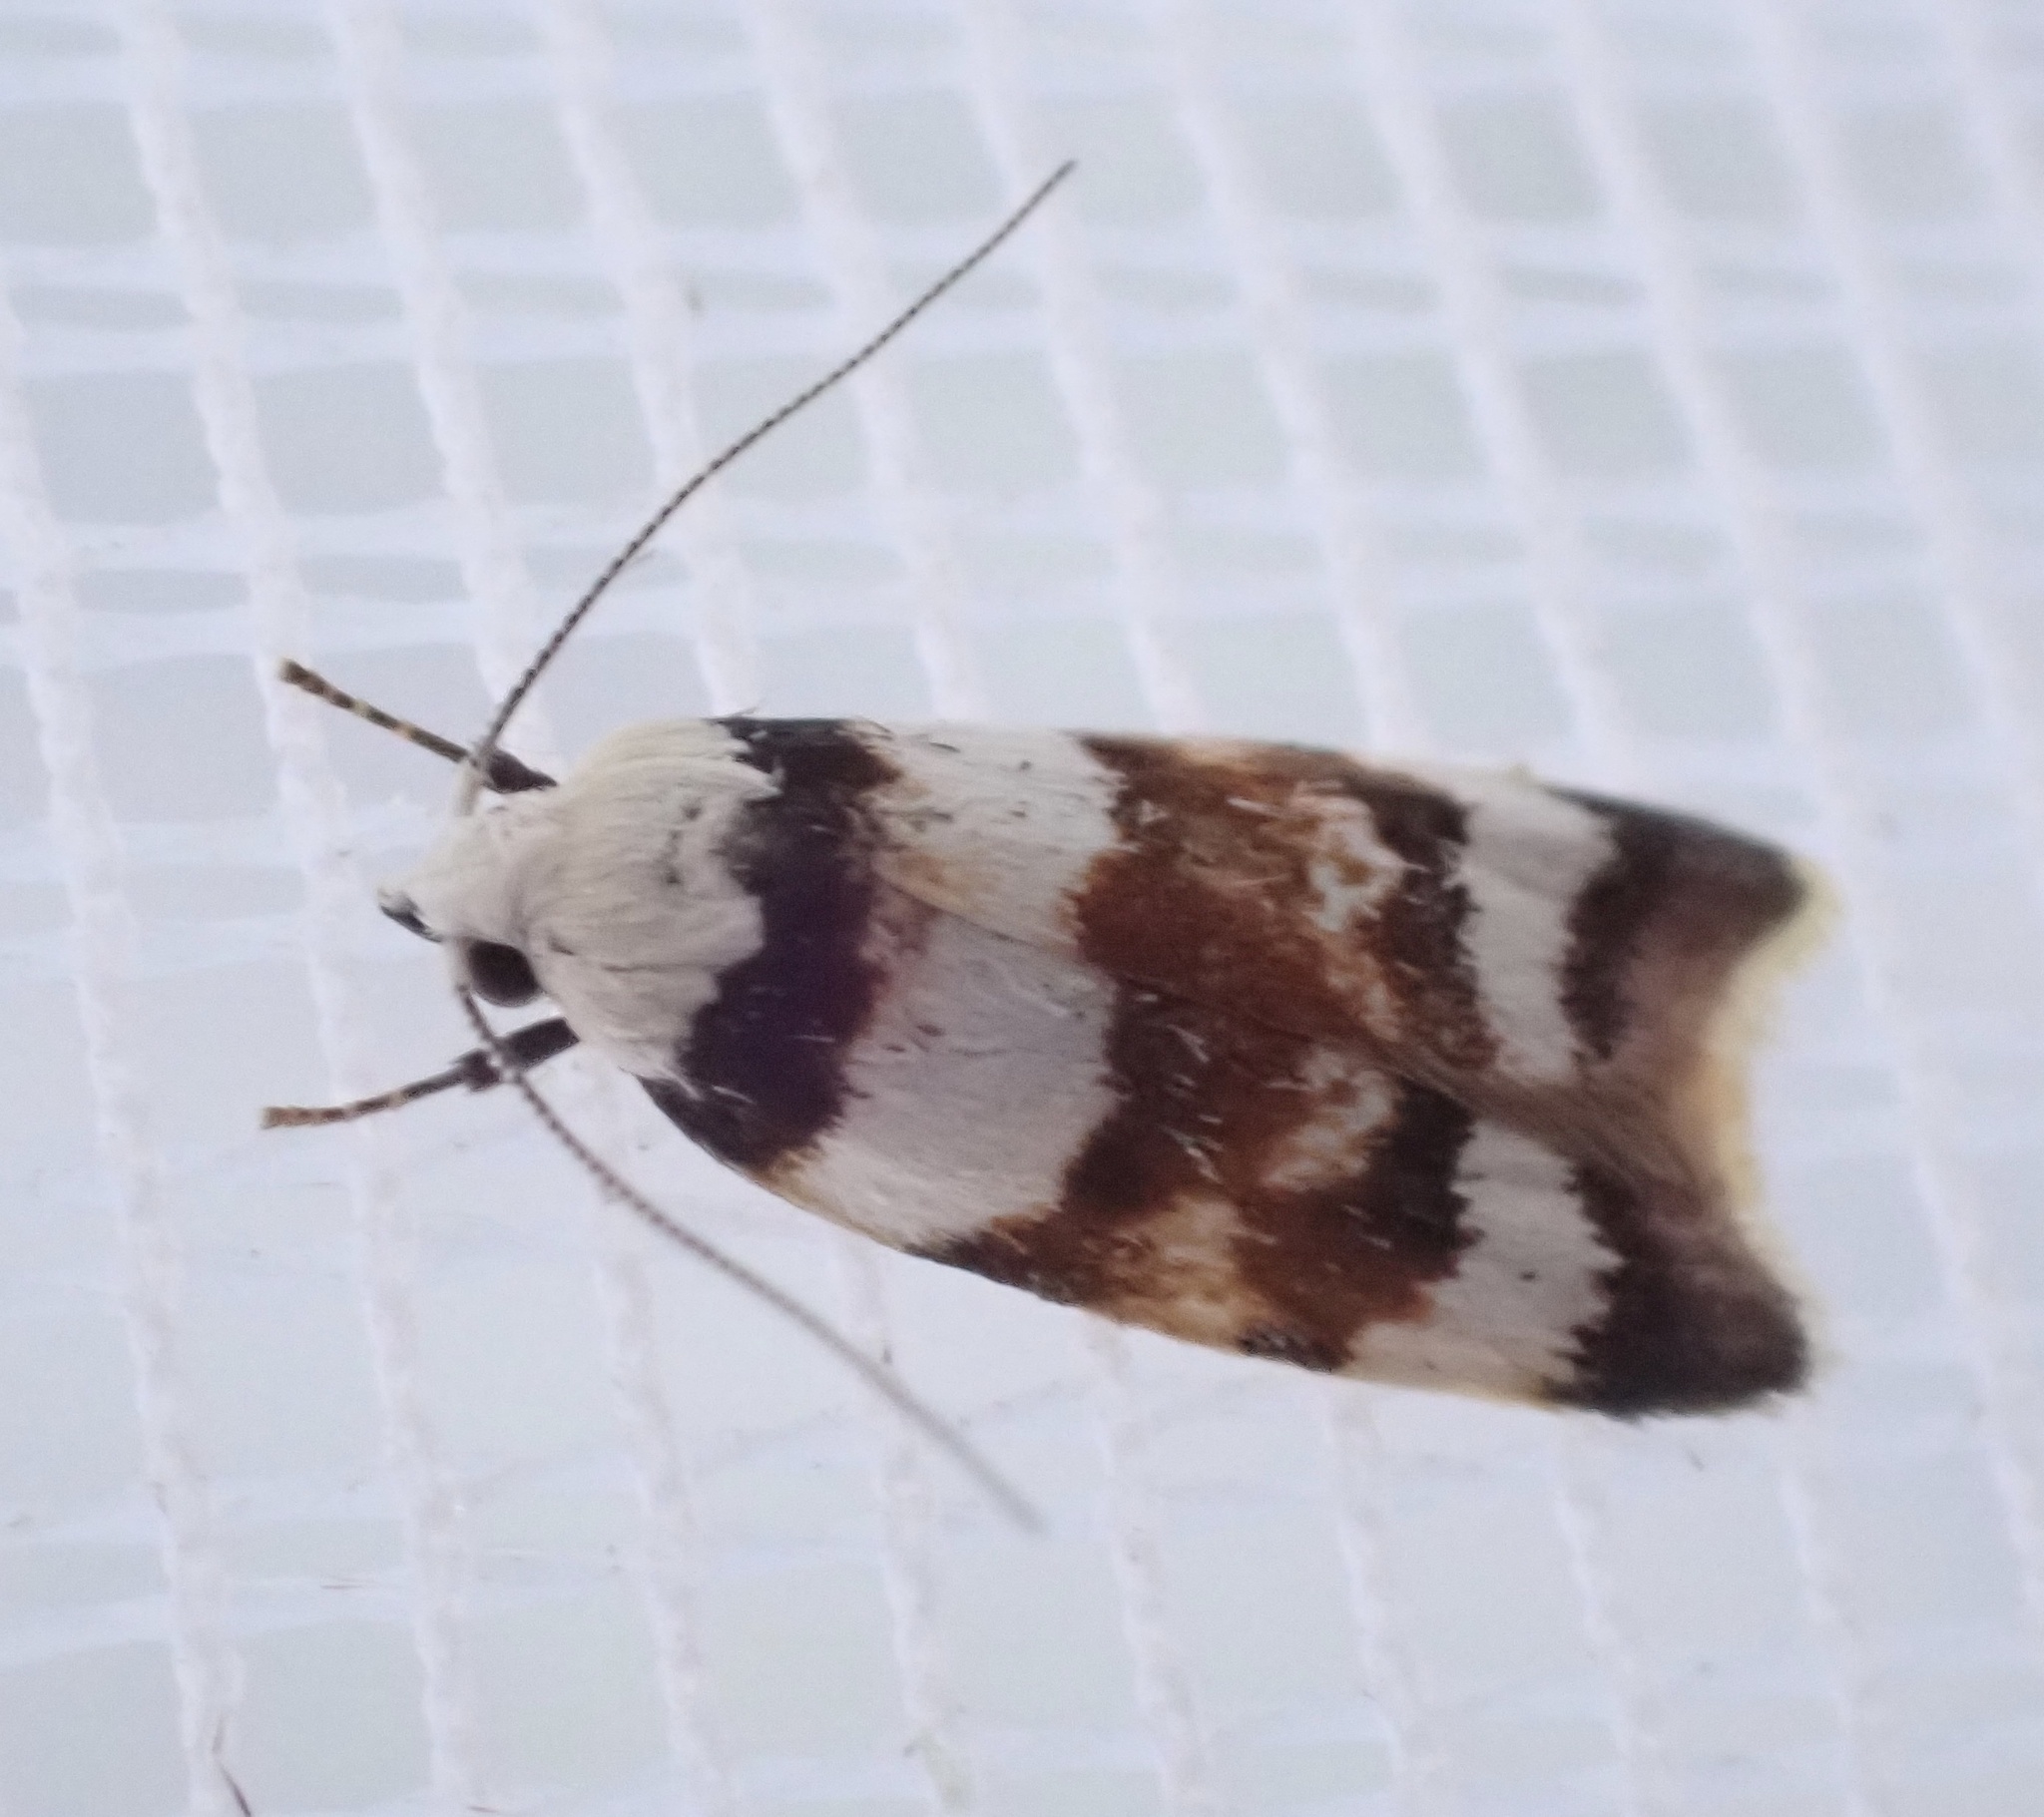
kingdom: Animalia
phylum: Arthropoda
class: Insecta
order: Lepidoptera
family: Oecophoridae
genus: Catacometes
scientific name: Catacometes phanozona
